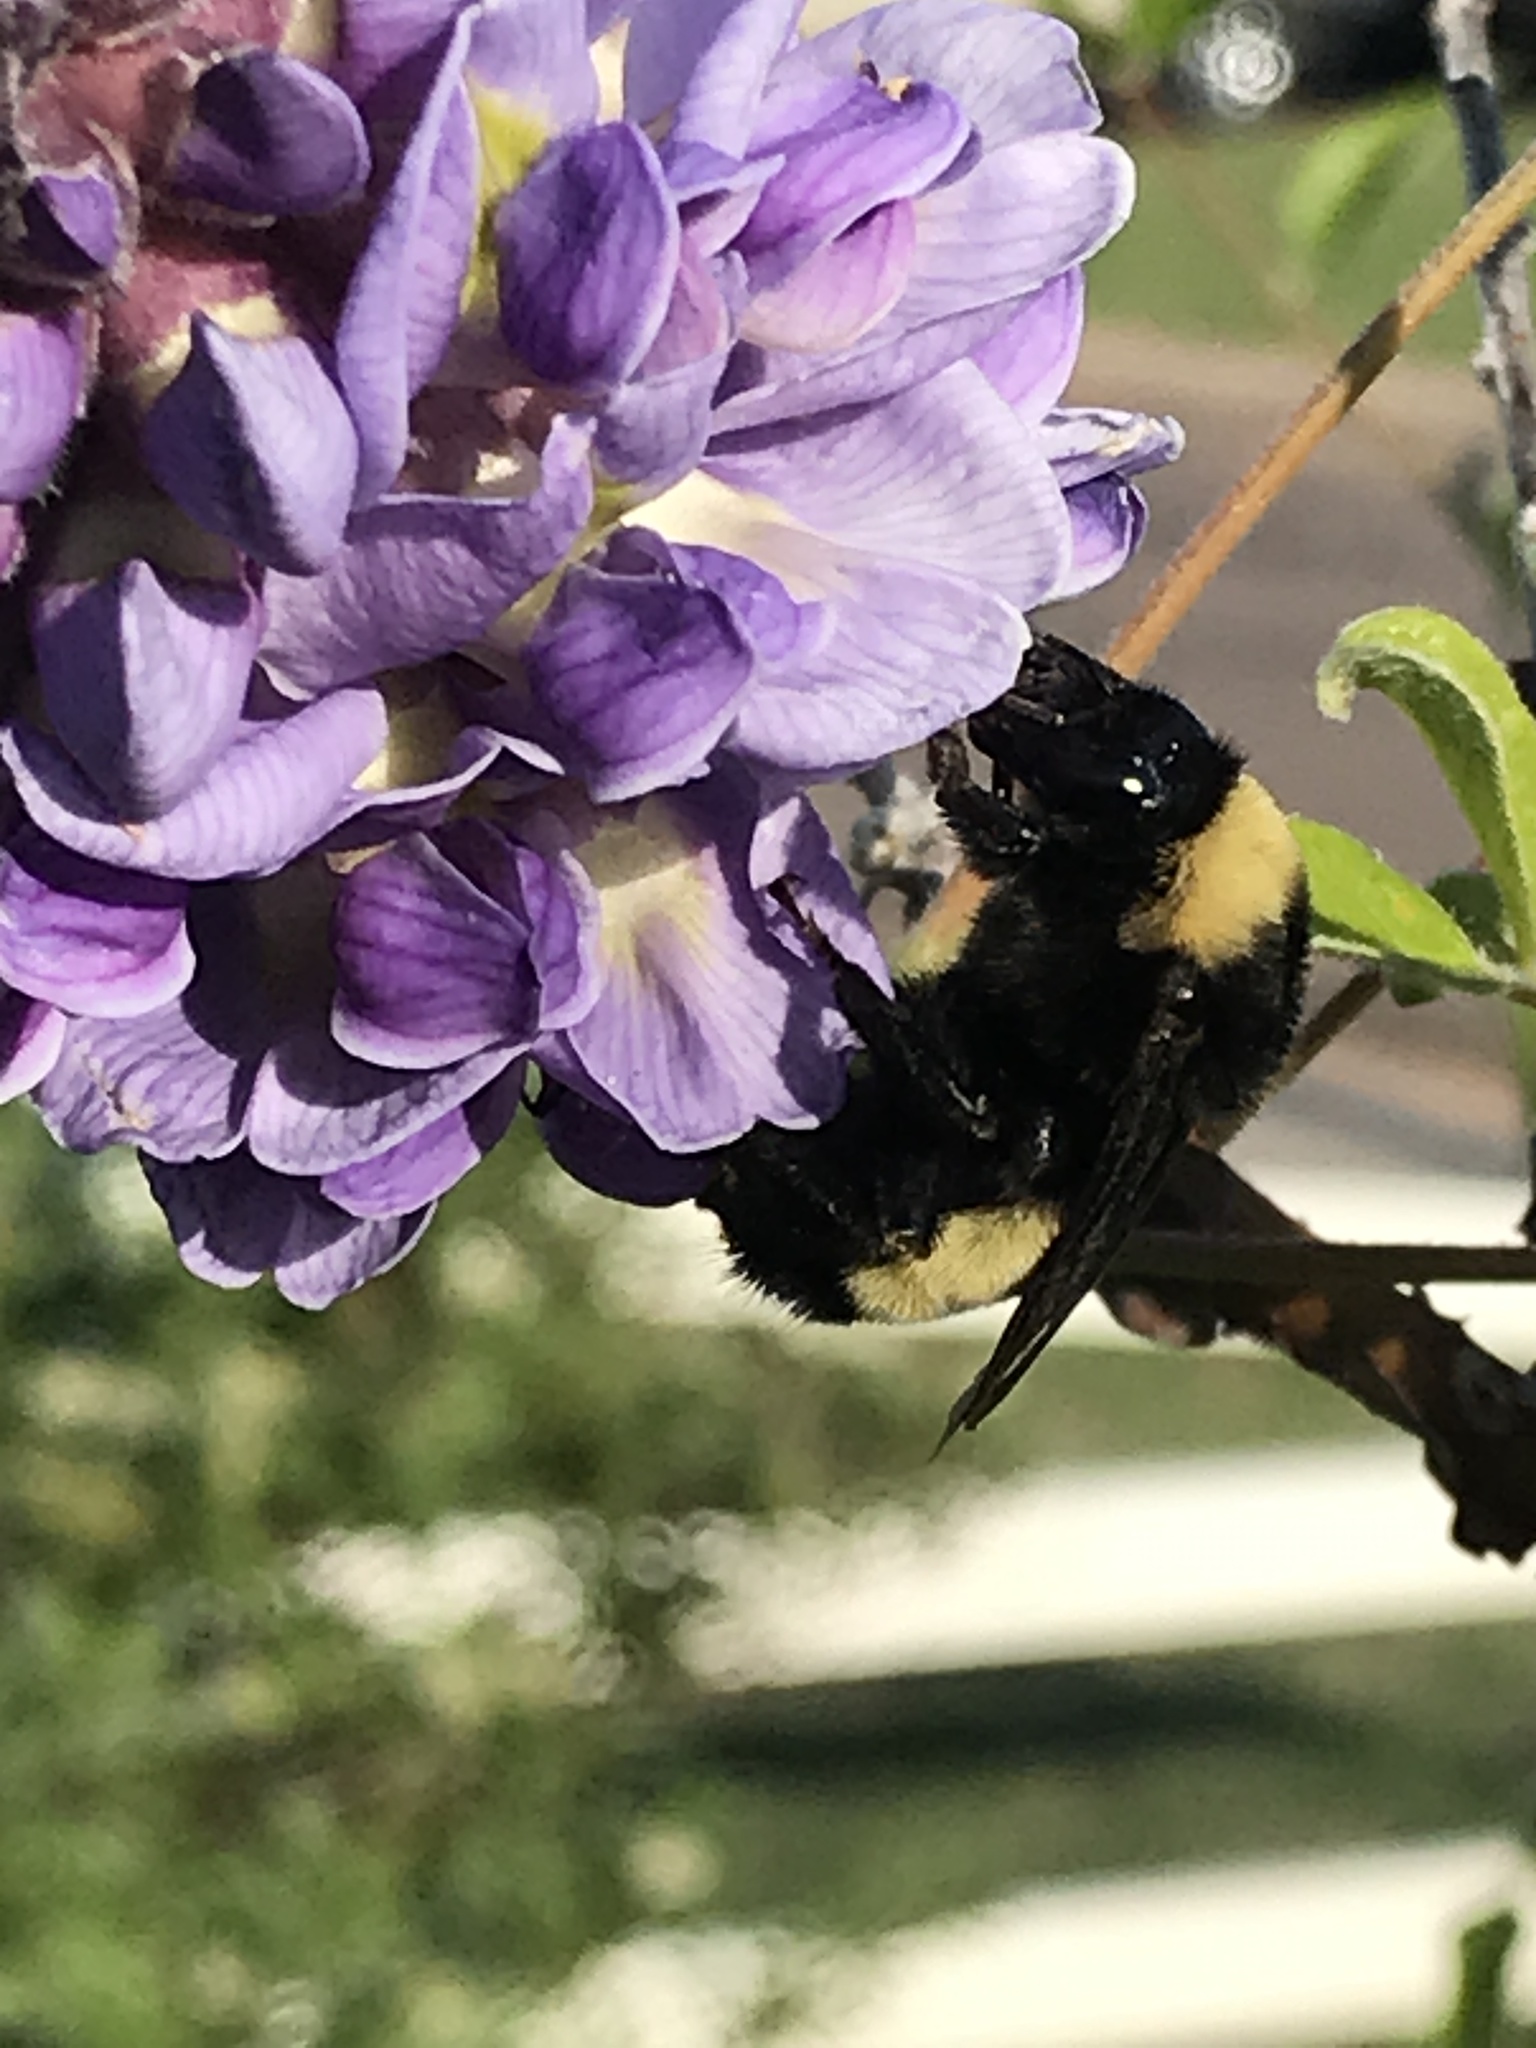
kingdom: Animalia
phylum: Arthropoda
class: Insecta
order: Hymenoptera
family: Apidae
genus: Bombus
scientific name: Bombus pensylvanicus
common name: Bumble bee
